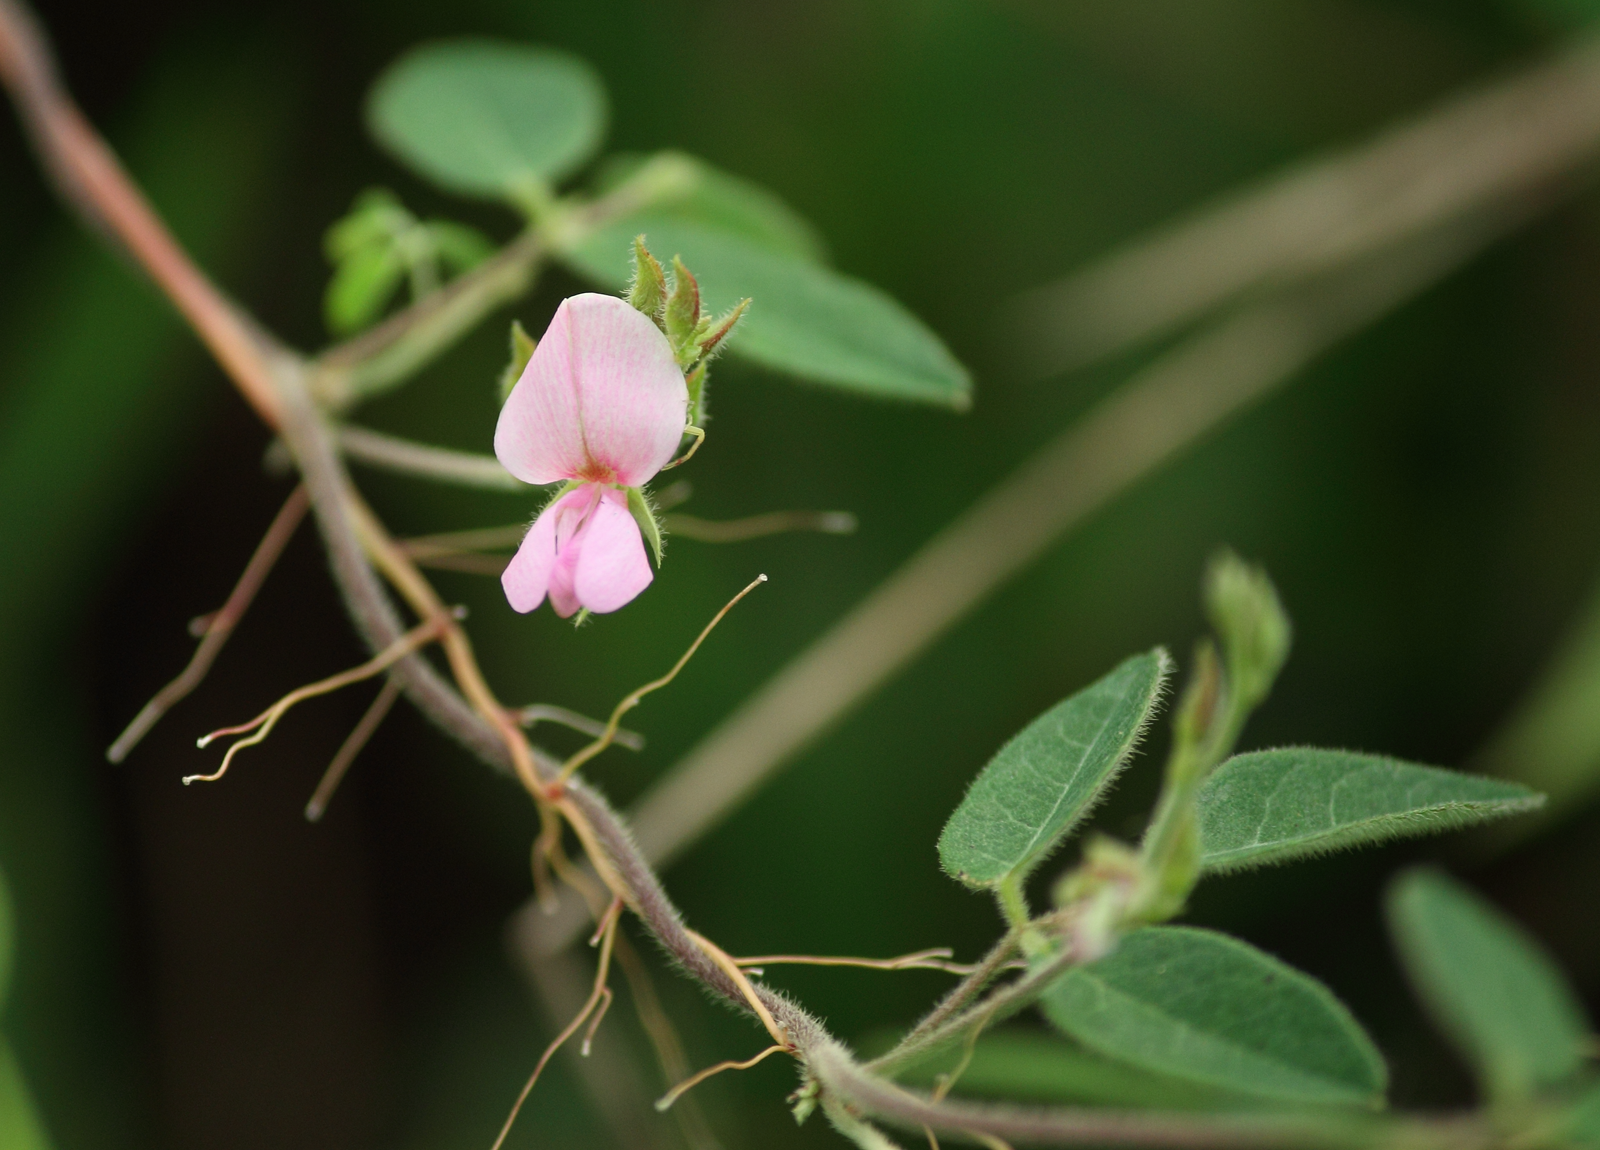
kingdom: Plantae
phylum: Tracheophyta
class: Magnoliopsida
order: Fabales
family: Fabaceae
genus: Galactia
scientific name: Galactia regularis
